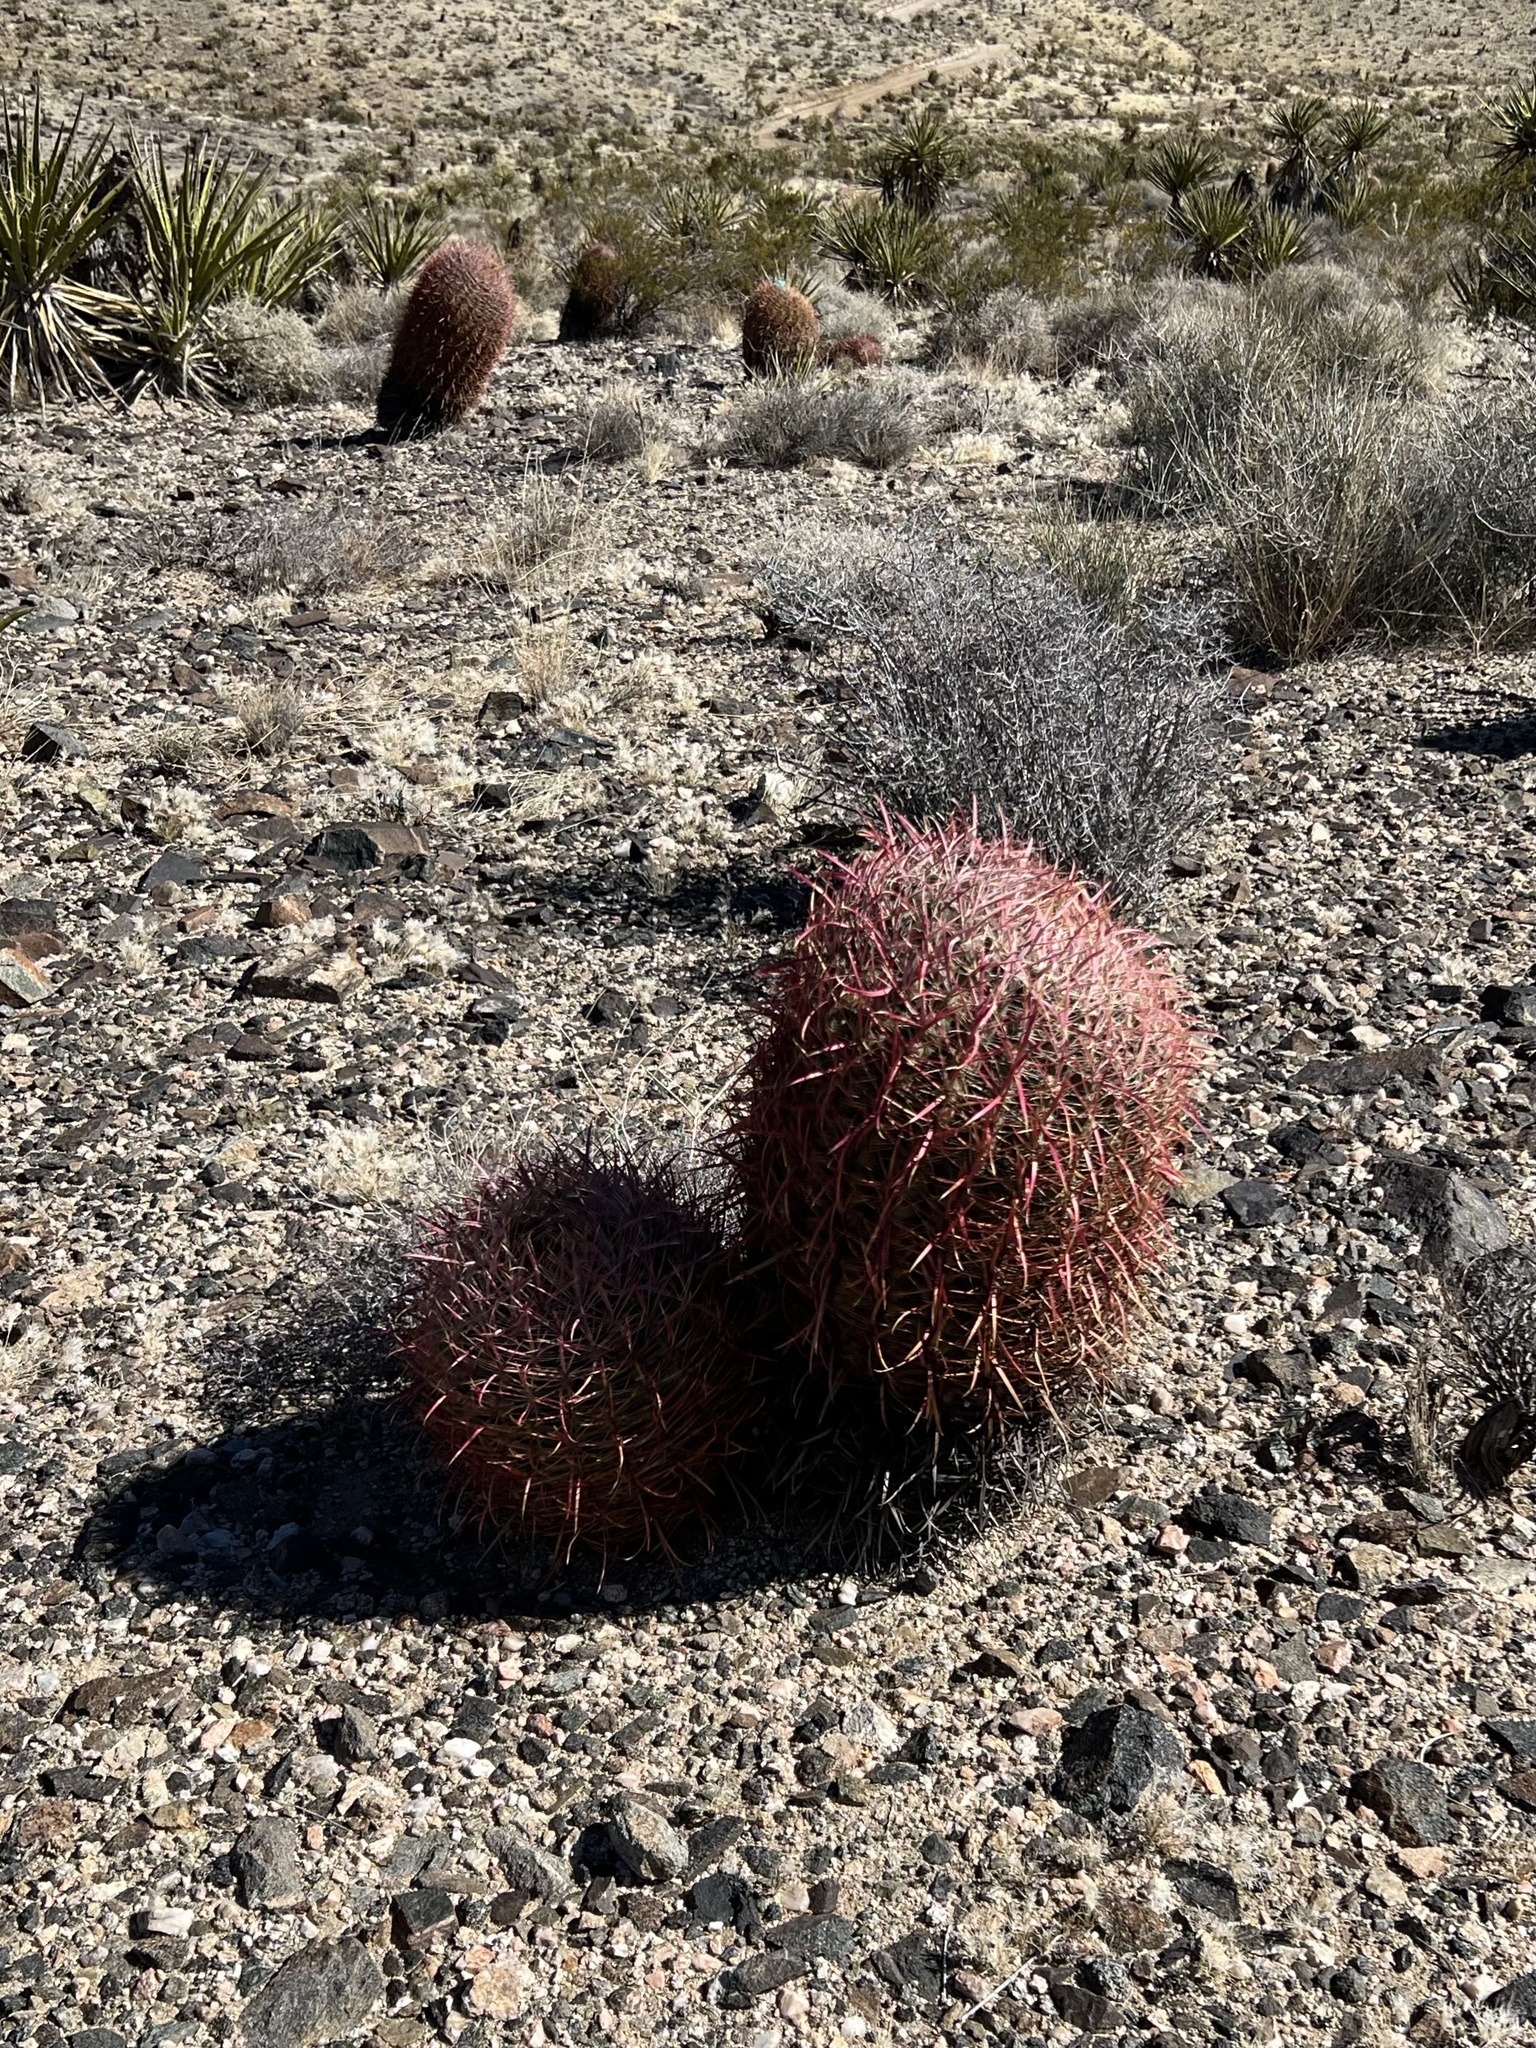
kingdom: Plantae
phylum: Tracheophyta
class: Magnoliopsida
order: Caryophyllales
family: Cactaceae
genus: Ferocactus
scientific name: Ferocactus cylindraceus
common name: California barrel cactus
